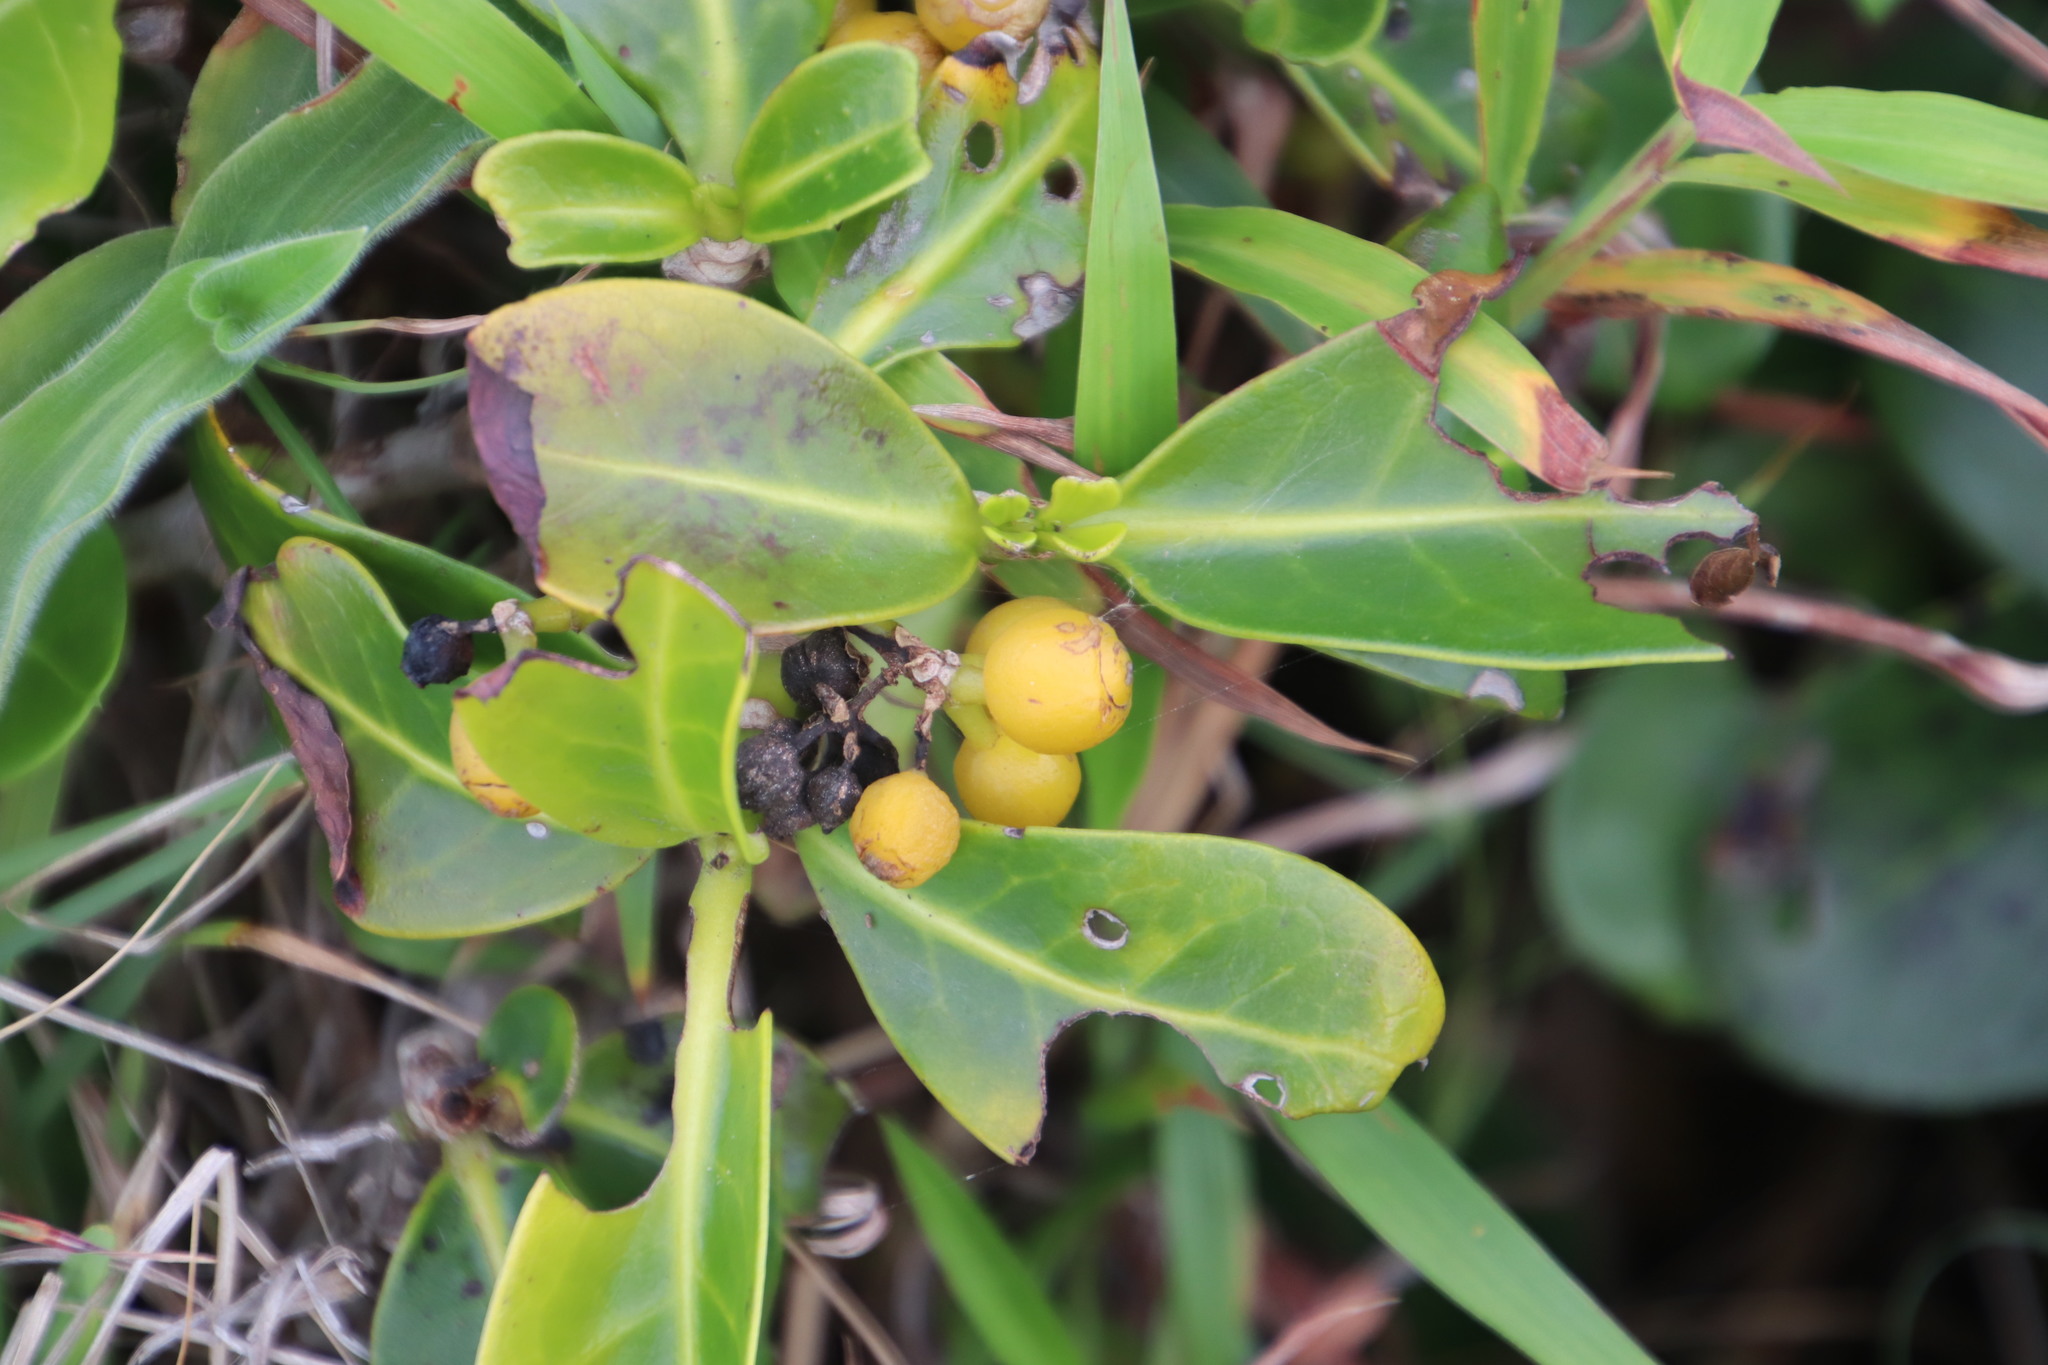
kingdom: Plantae
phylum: Tracheophyta
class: Magnoliopsida
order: Gentianales
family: Rubiaceae
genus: Psychotria
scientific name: Psychotria capensis
